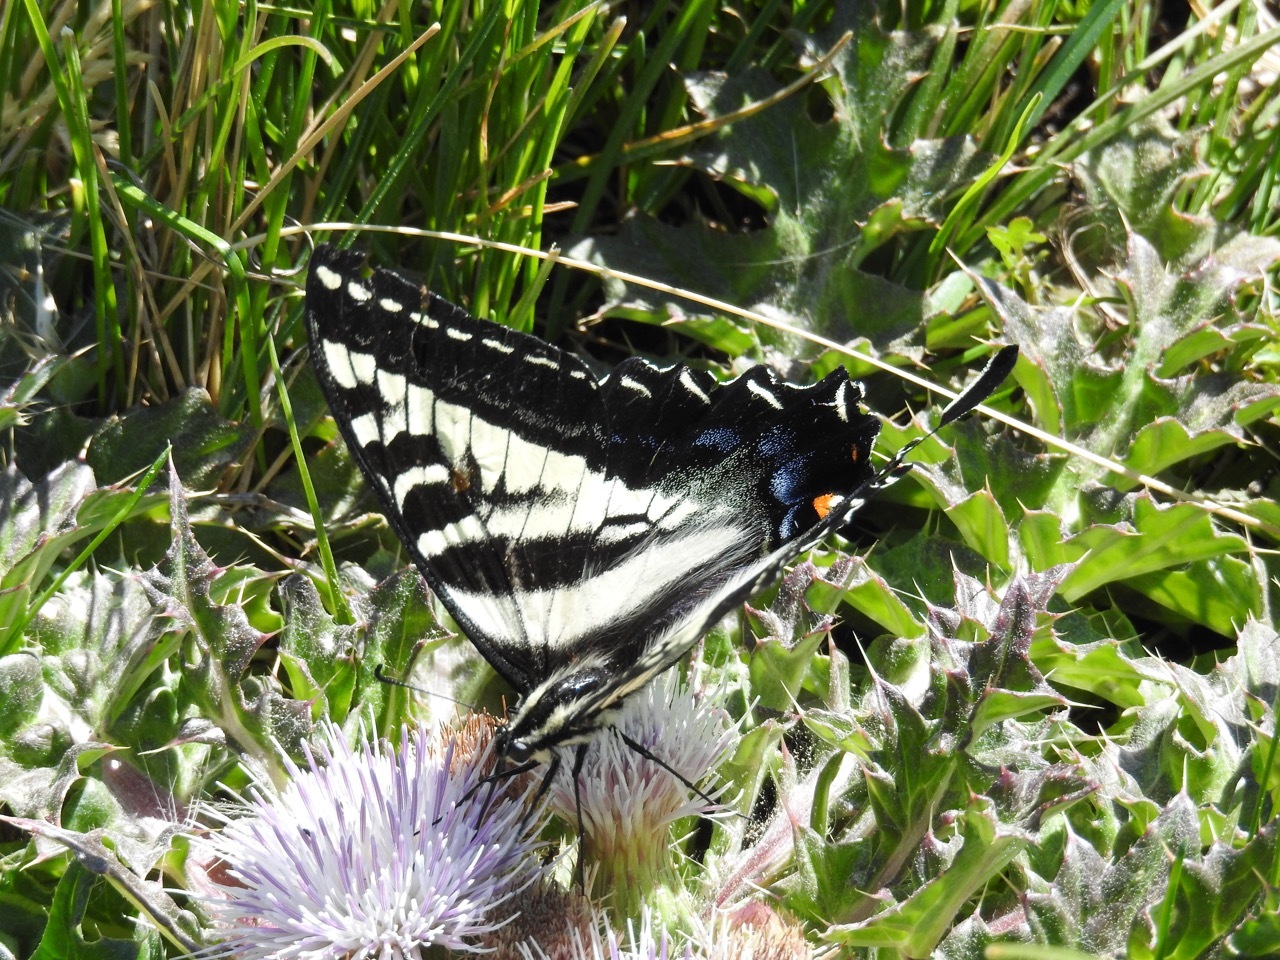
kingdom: Animalia
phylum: Arthropoda
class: Insecta
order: Lepidoptera
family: Papilionidae
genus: Papilio
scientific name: Papilio eurymedon
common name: Pale tiger swallowtail
